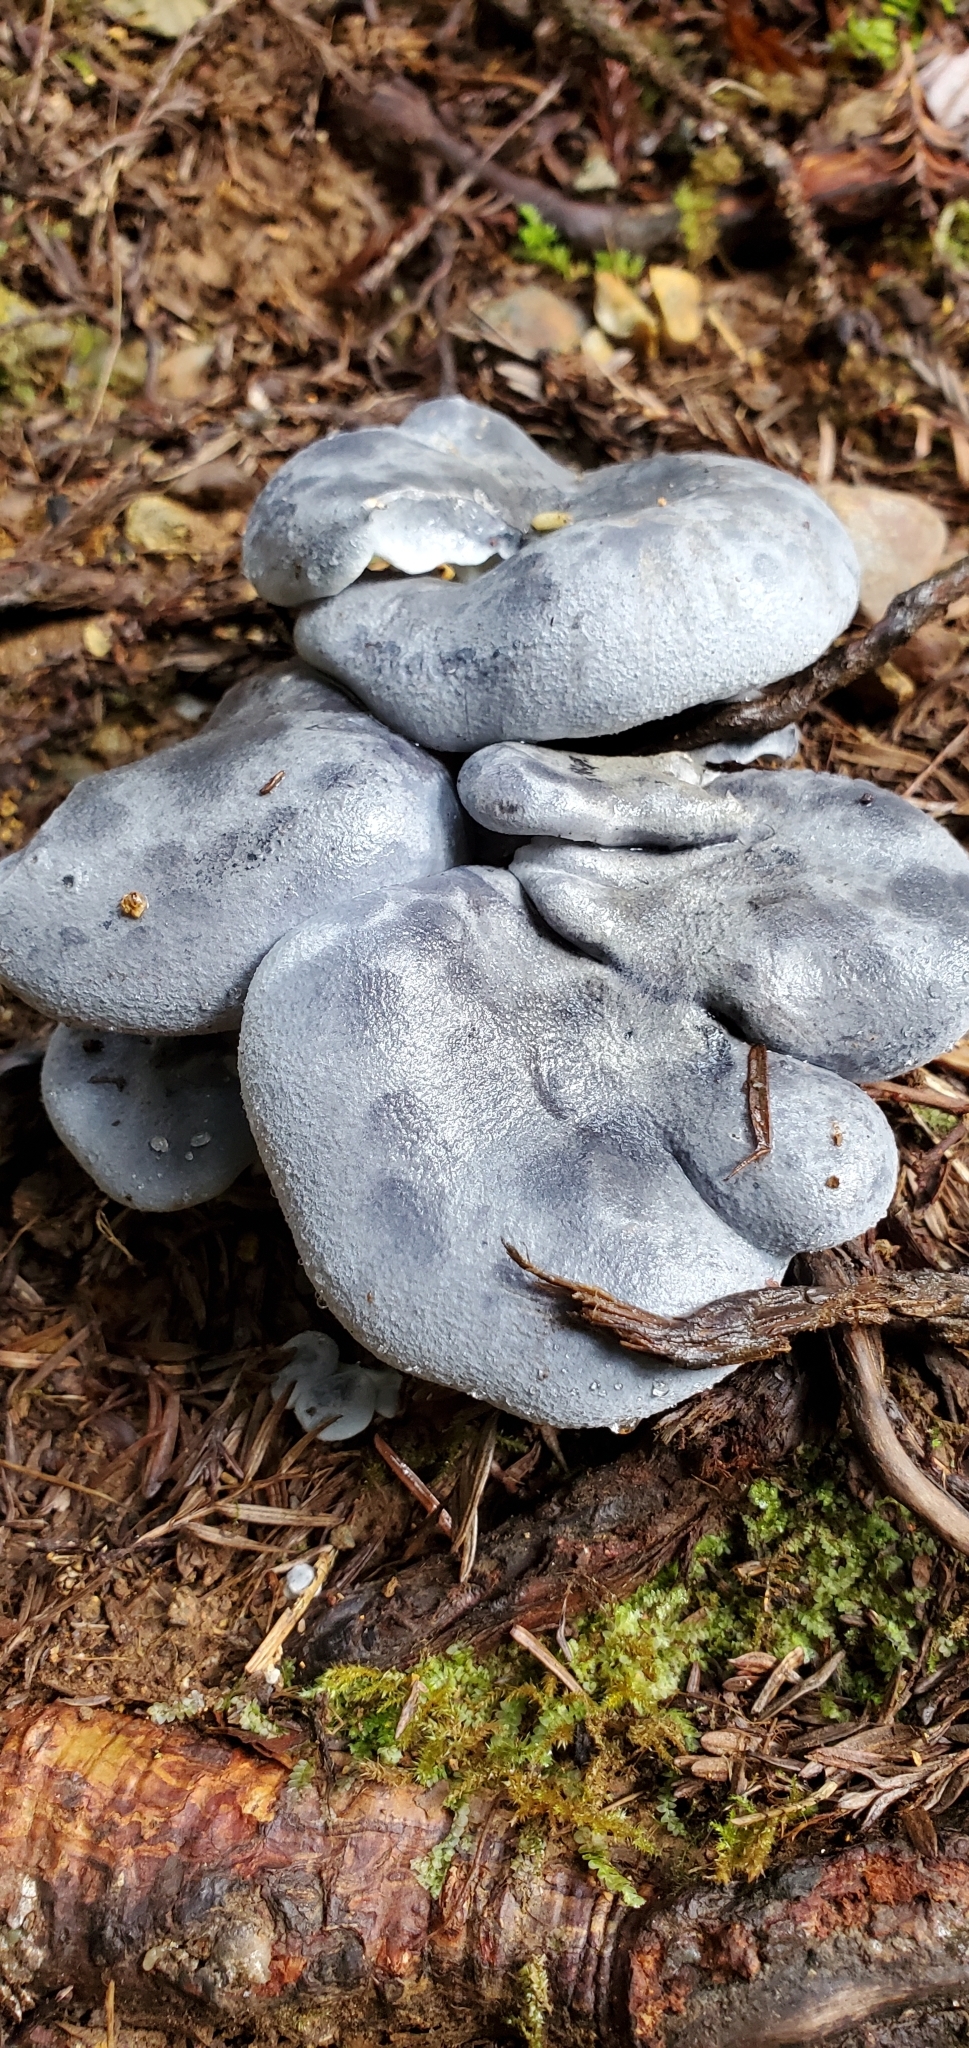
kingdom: Fungi
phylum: Basidiomycota
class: Agaricomycetes
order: Russulales
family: Albatrellaceae
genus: Neoalbatrellus
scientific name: Neoalbatrellus subcaeruleoporus
